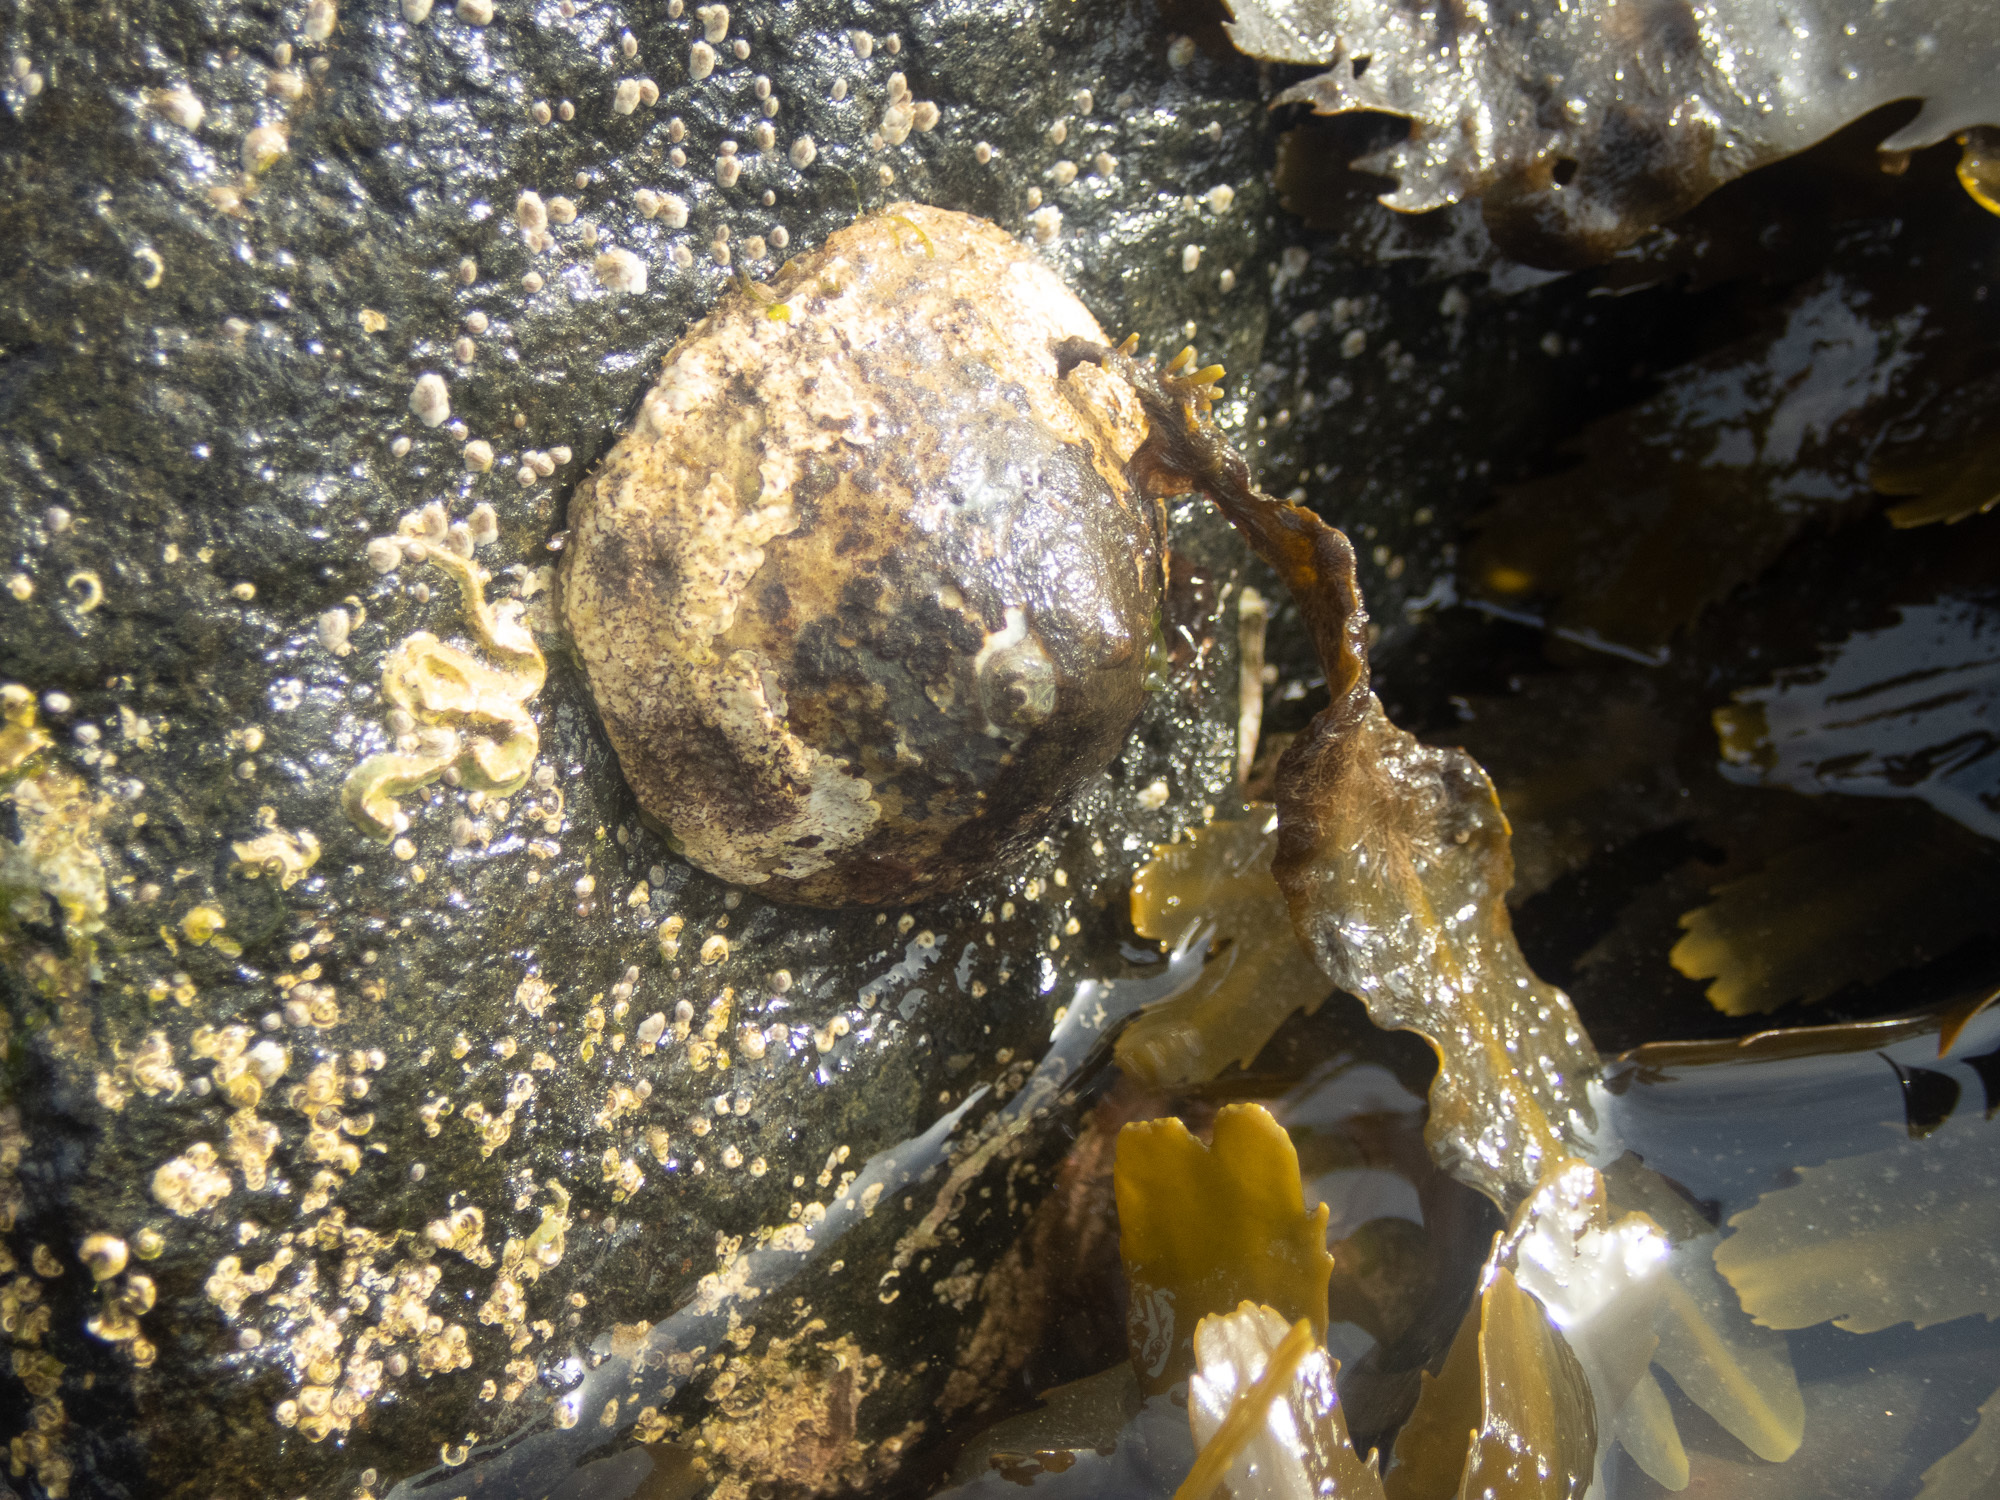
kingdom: Animalia
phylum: Mollusca
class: Gastropoda
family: Patellidae
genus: Patella
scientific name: Patella vulgata
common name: Common limpet
